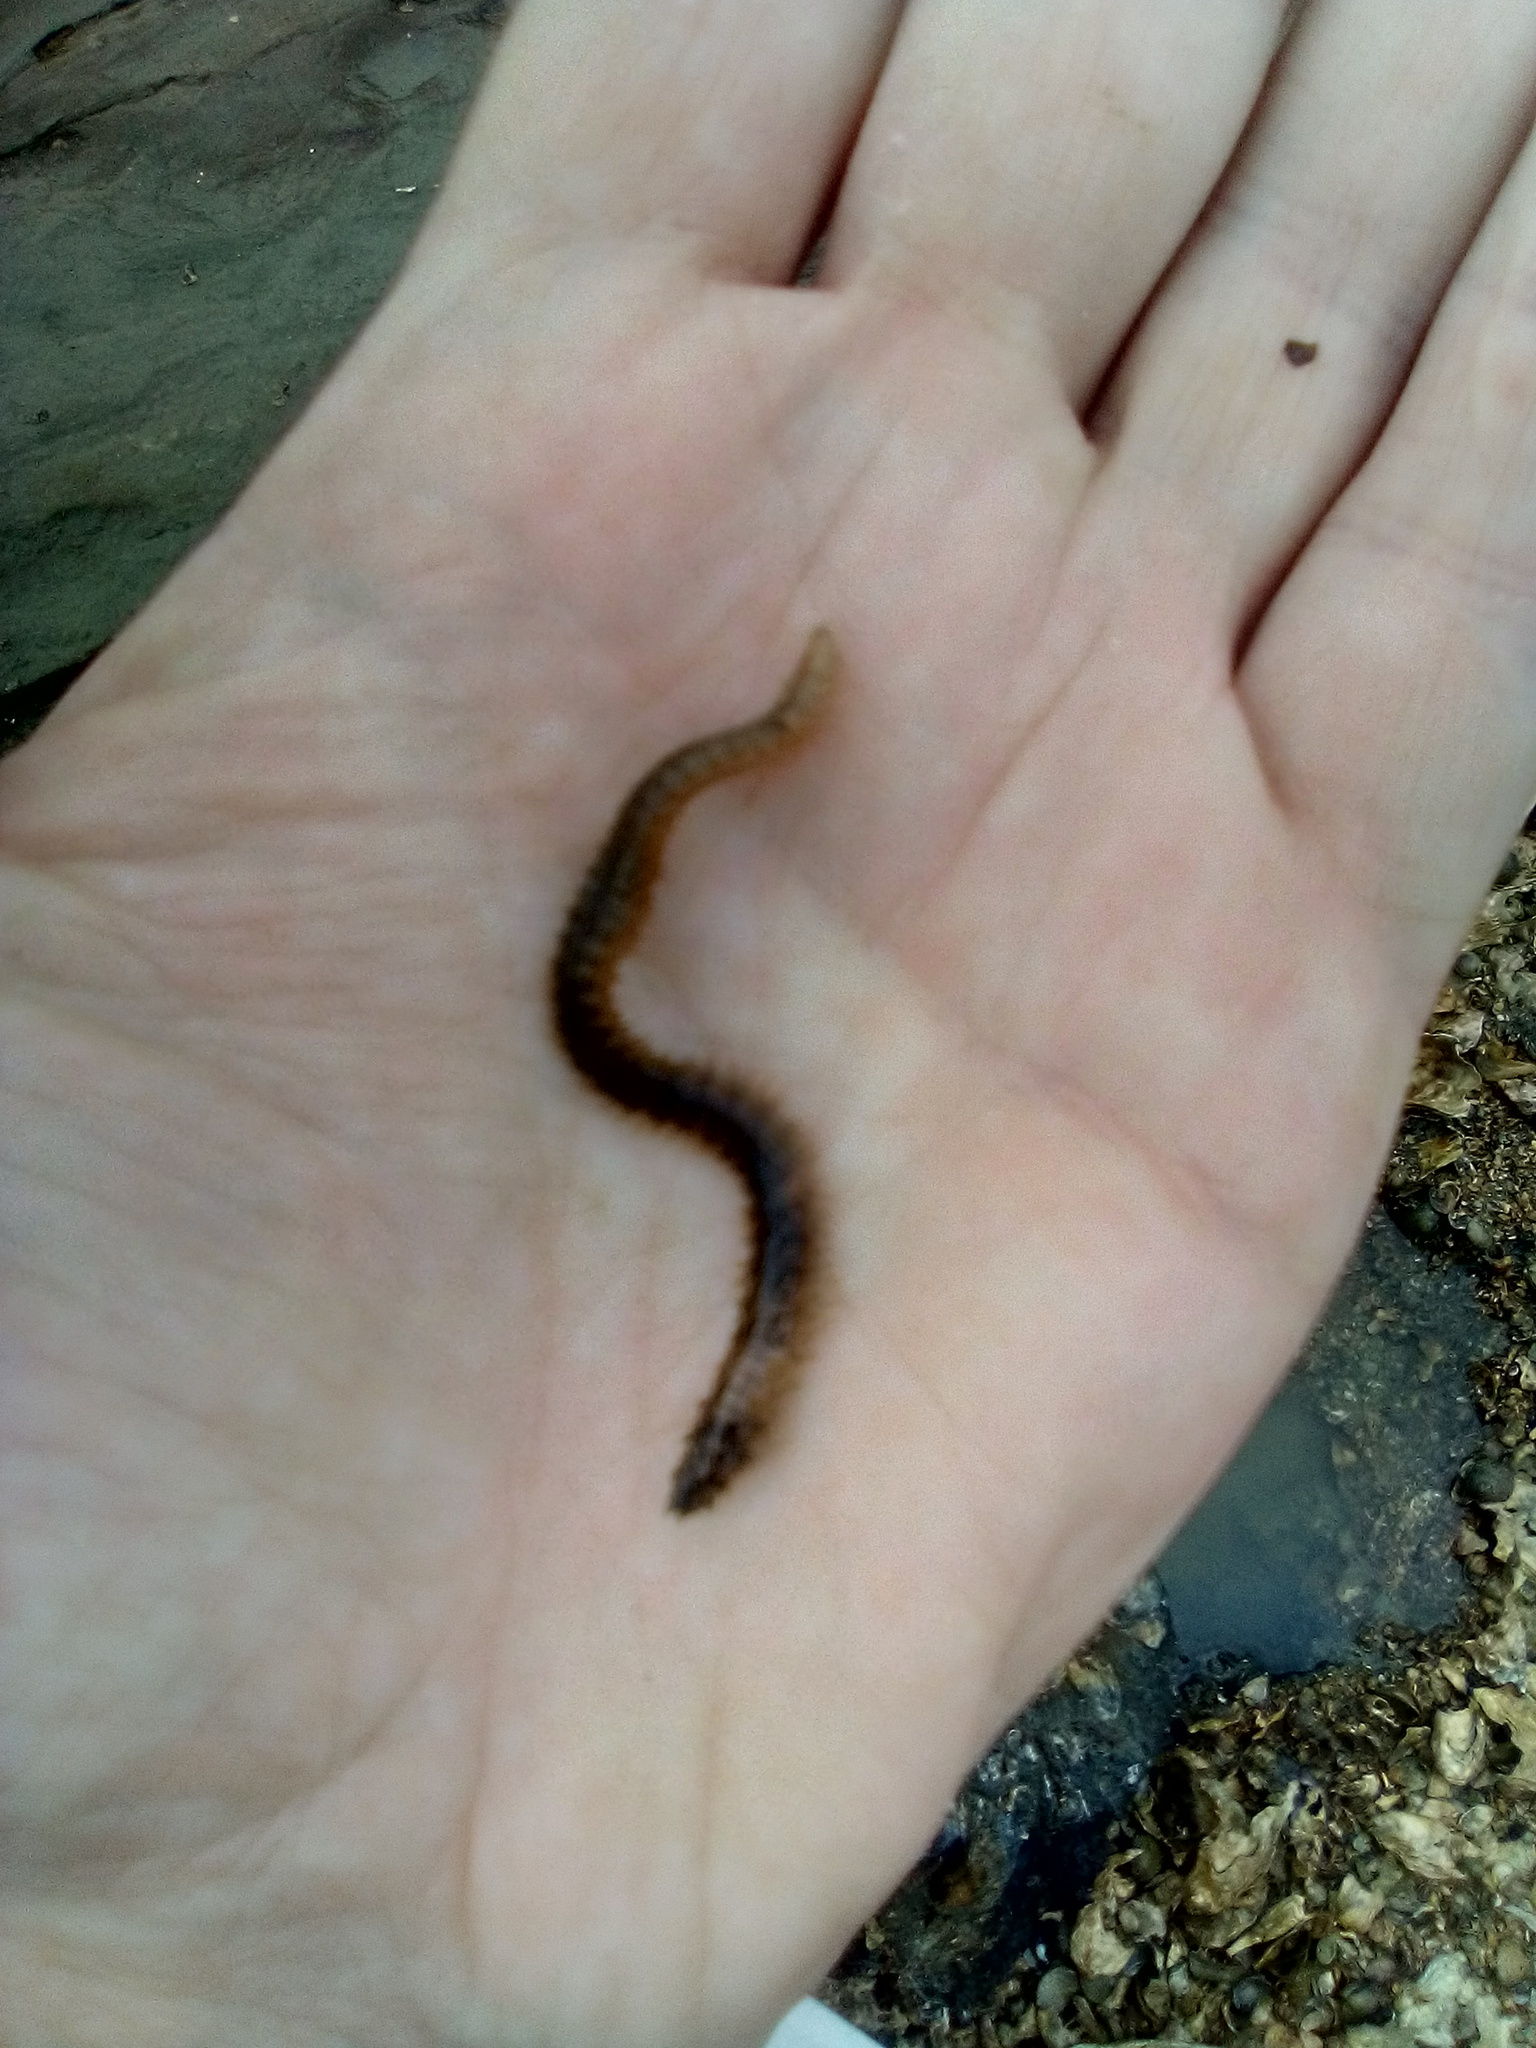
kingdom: Animalia
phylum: Annelida
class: Polychaeta
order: Phyllodocida
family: Polynoidae
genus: Lepidastheniella
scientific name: Lepidastheniella comma
